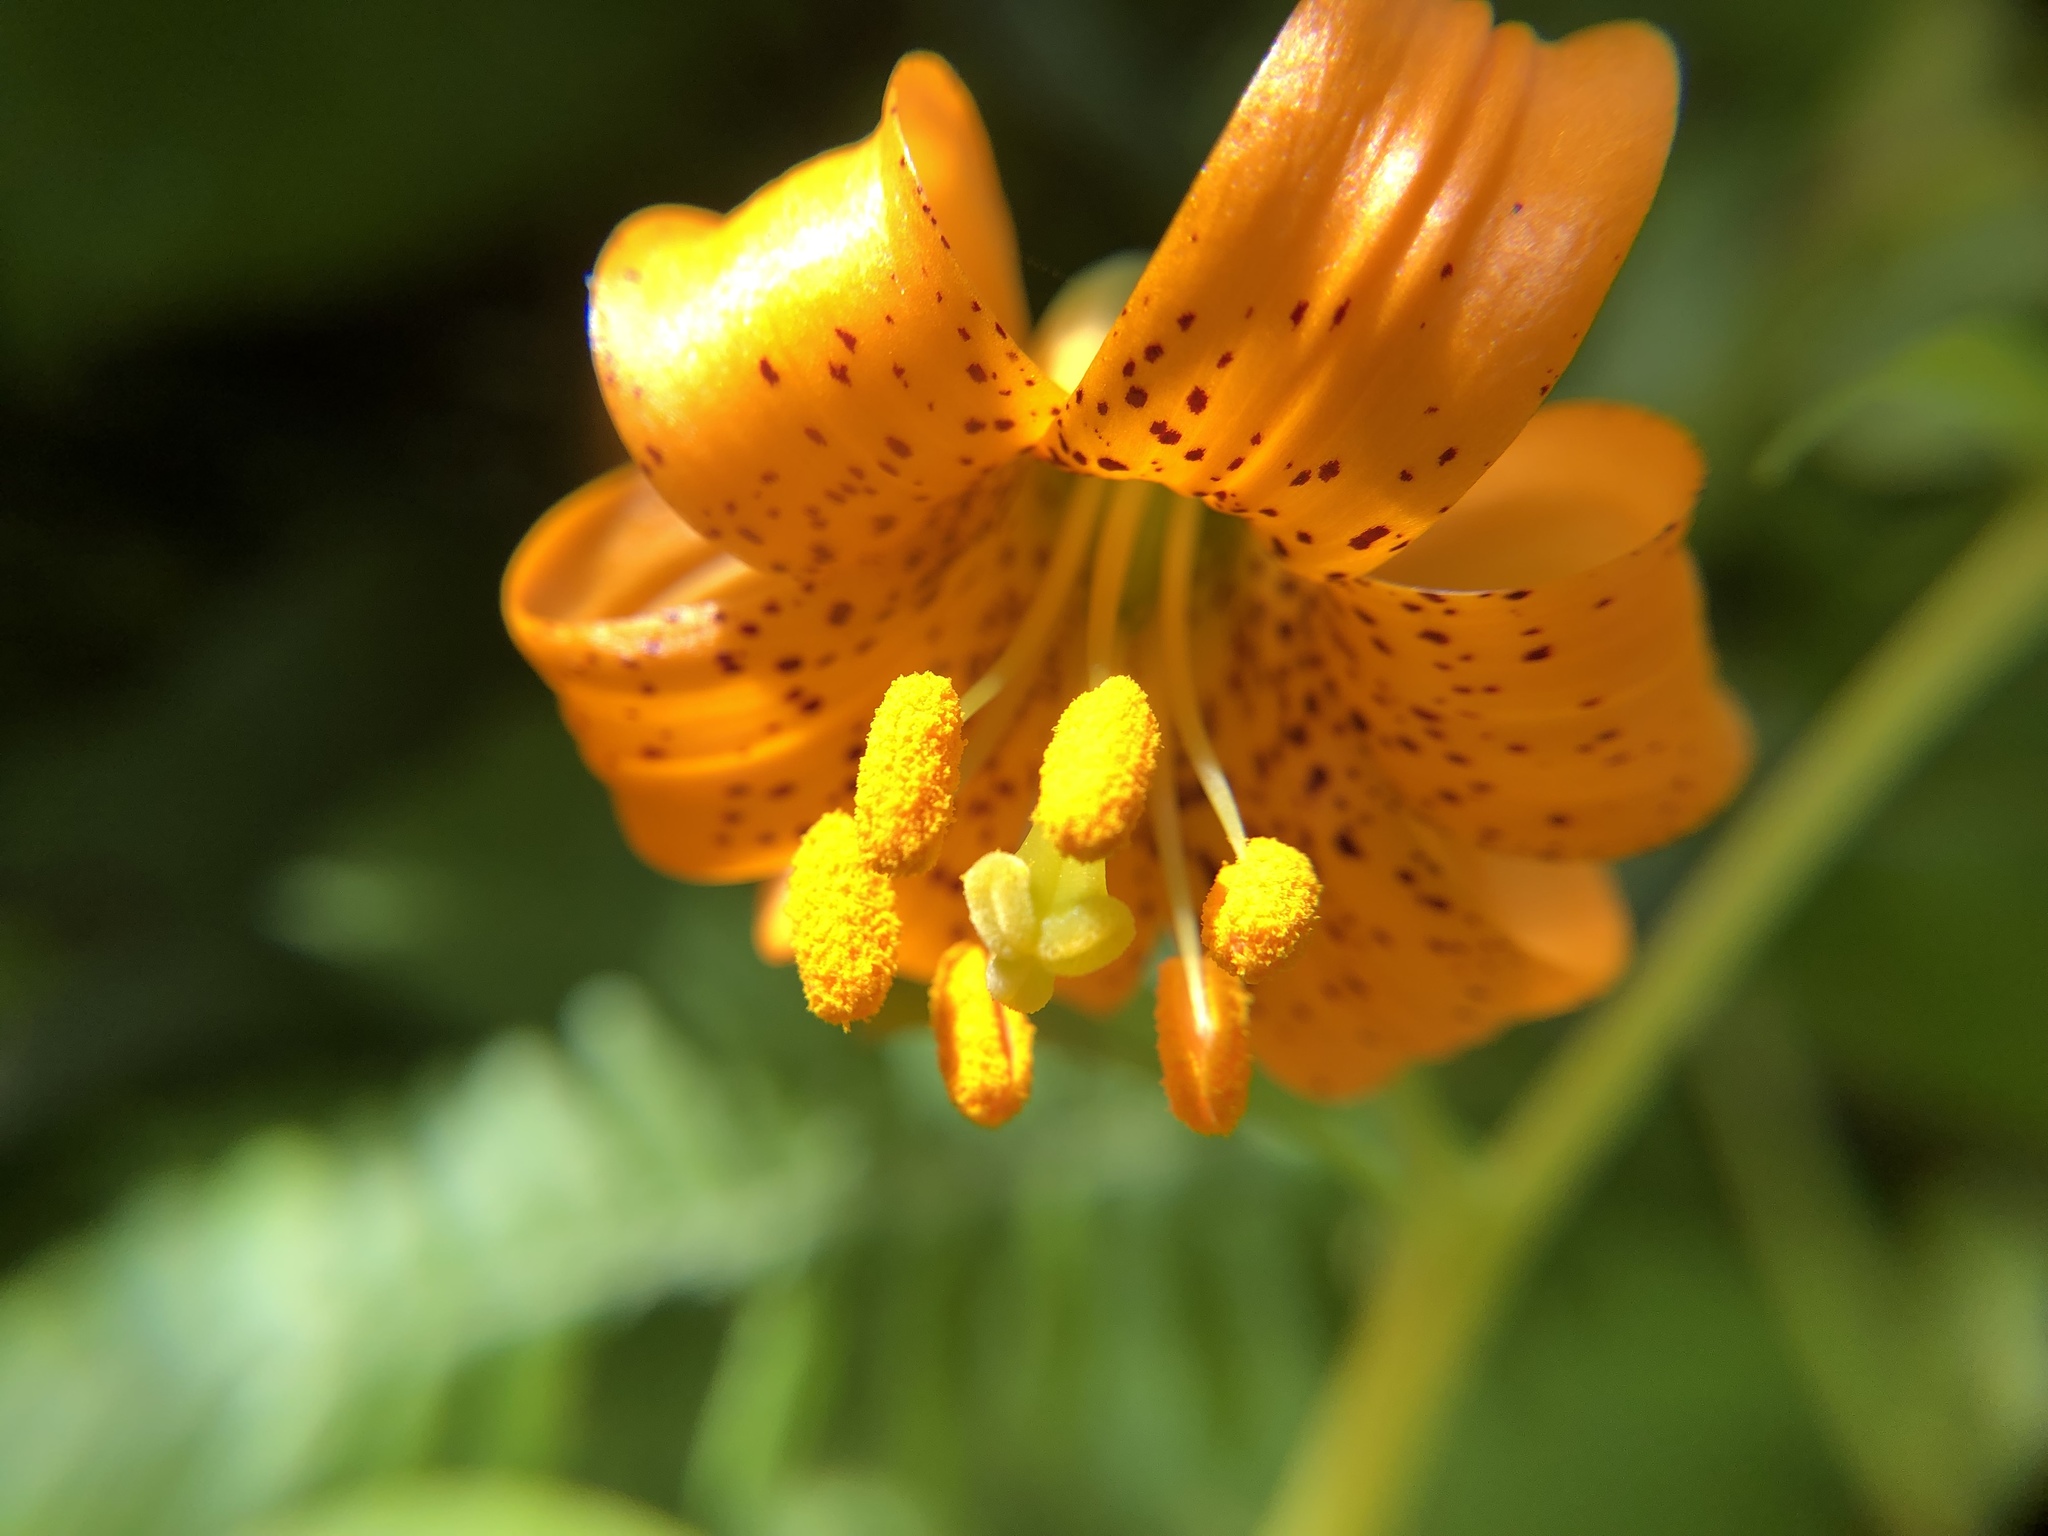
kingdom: Plantae
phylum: Tracheophyta
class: Liliopsida
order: Liliales
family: Liliaceae
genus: Lilium
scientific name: Lilium columbianum
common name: Columbia lily
